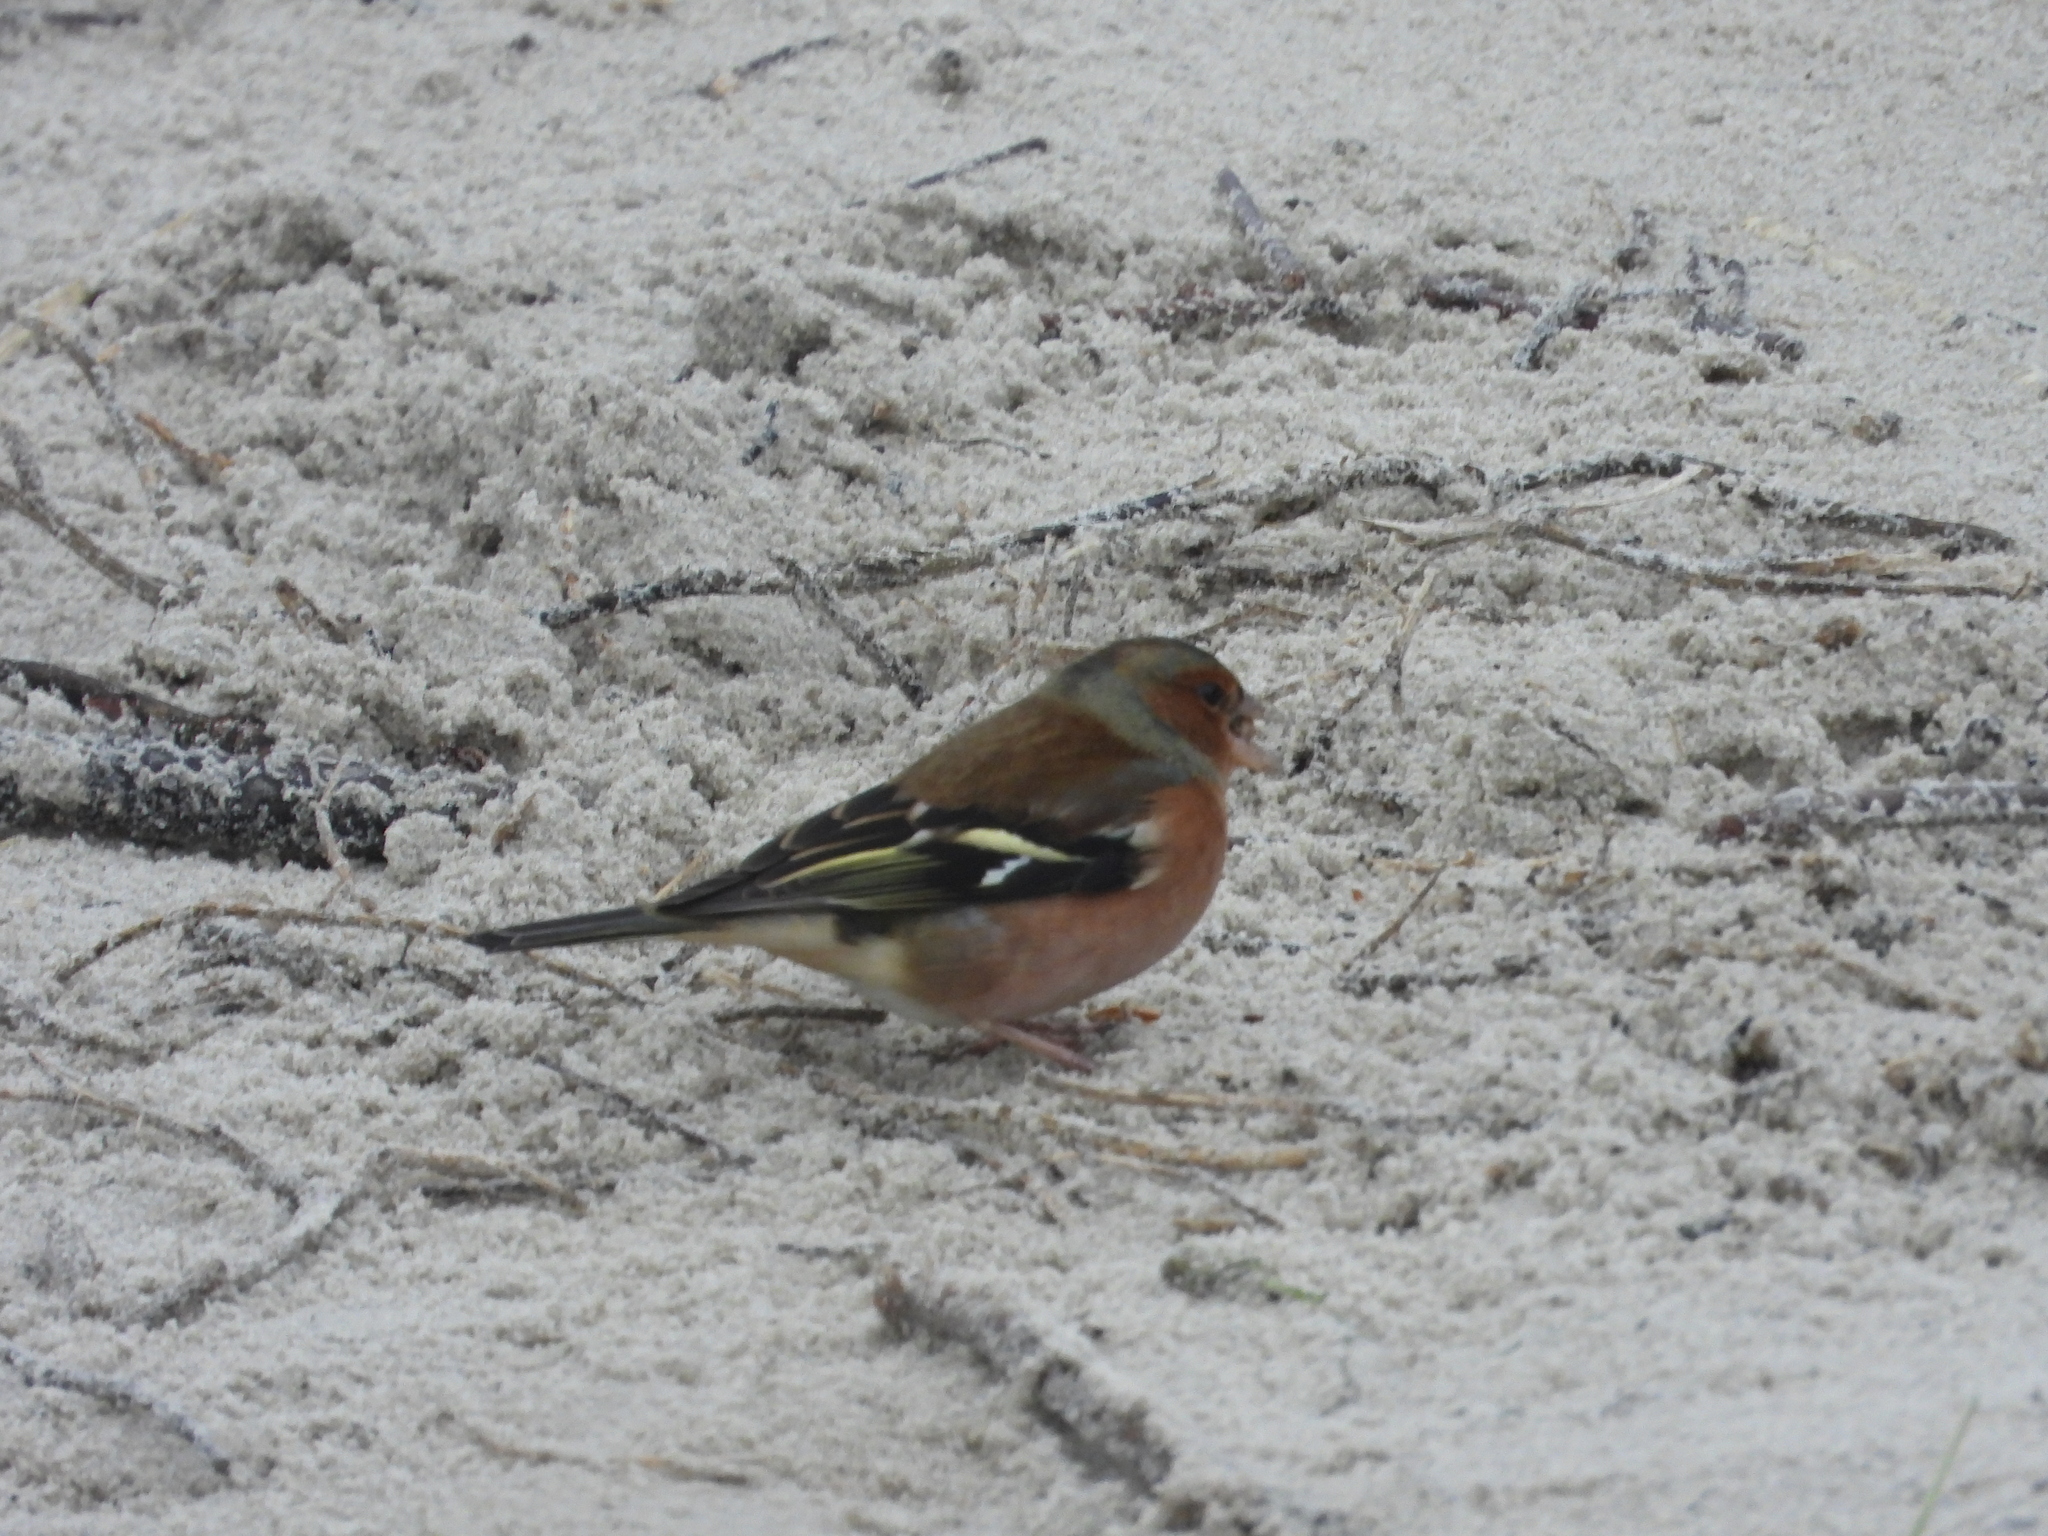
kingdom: Animalia
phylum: Chordata
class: Aves
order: Passeriformes
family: Fringillidae
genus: Fringilla
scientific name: Fringilla coelebs
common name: Common chaffinch
